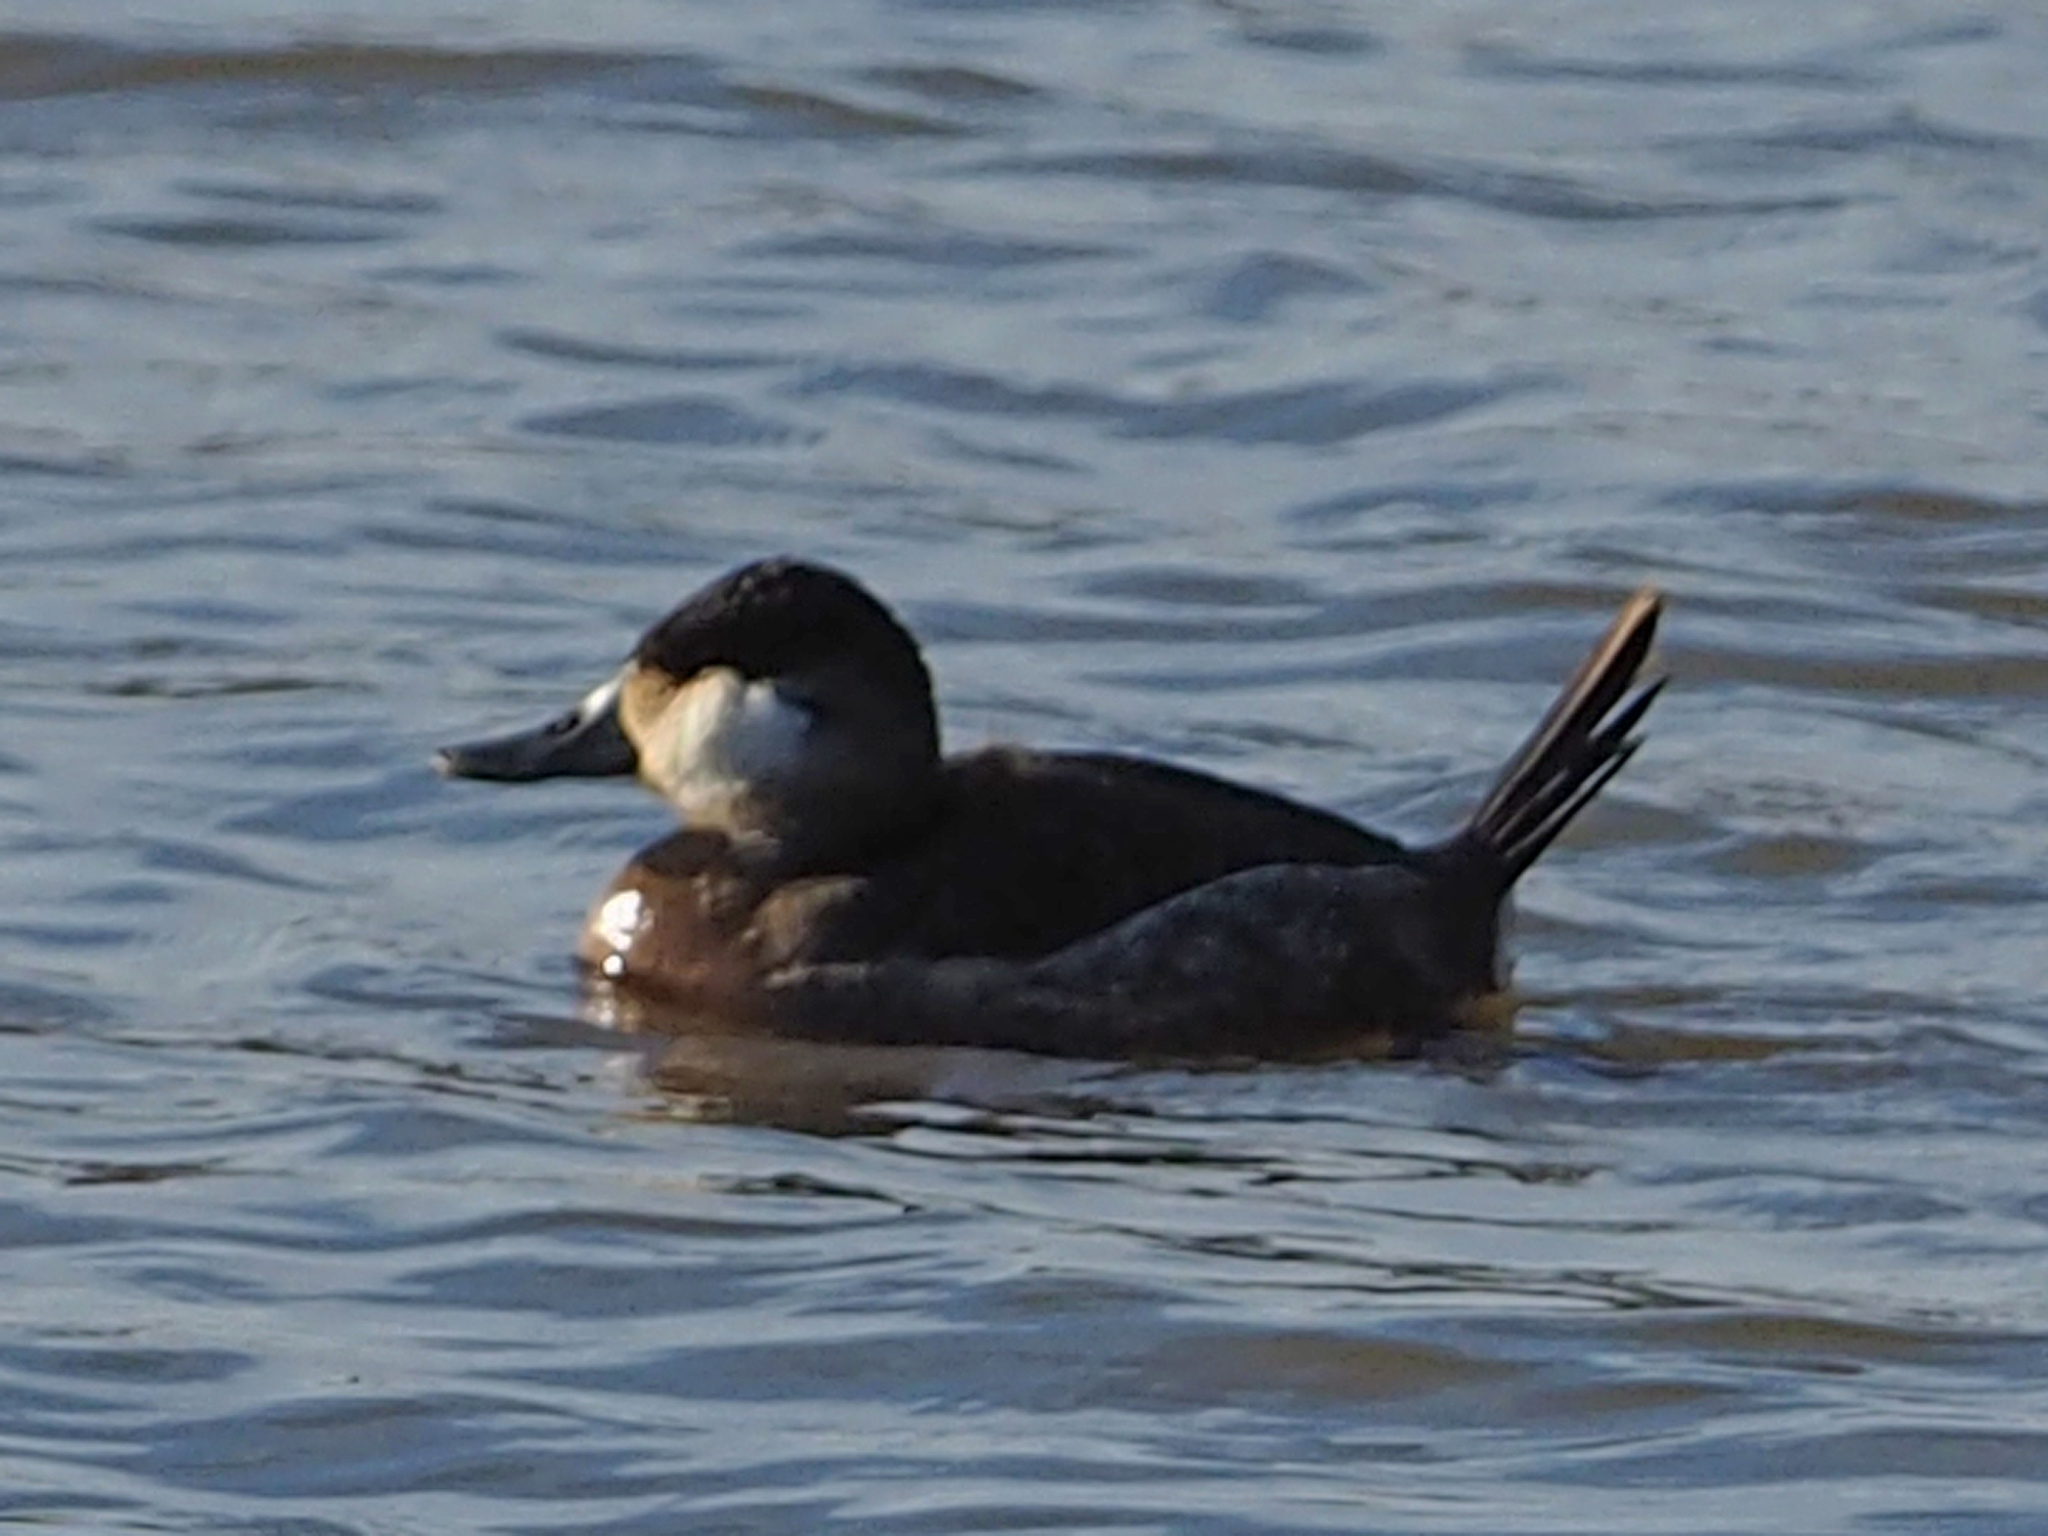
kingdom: Animalia
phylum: Chordata
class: Aves
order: Anseriformes
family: Anatidae
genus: Oxyura
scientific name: Oxyura jamaicensis
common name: Ruddy duck
